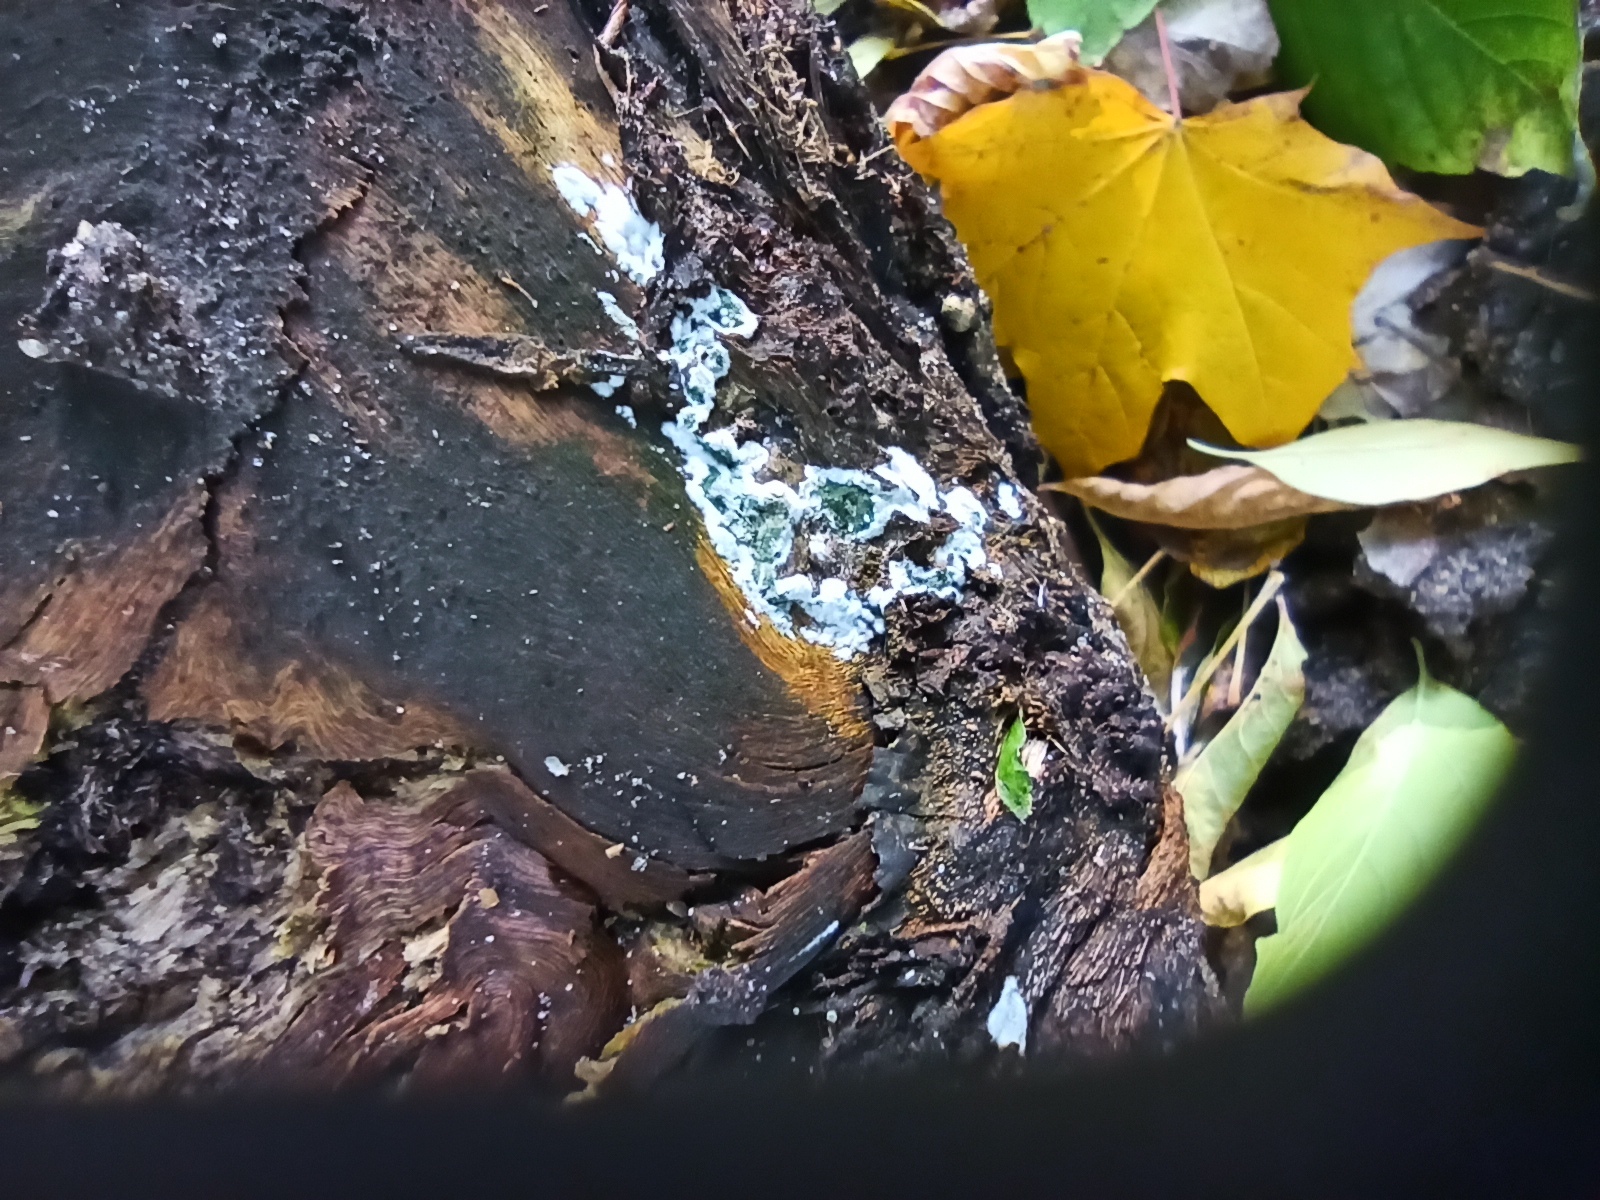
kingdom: Fungi
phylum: Ascomycota
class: Sordariomycetes
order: Hypocreales
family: Hypocreaceae
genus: Trichoderma
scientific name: Trichoderma viride
